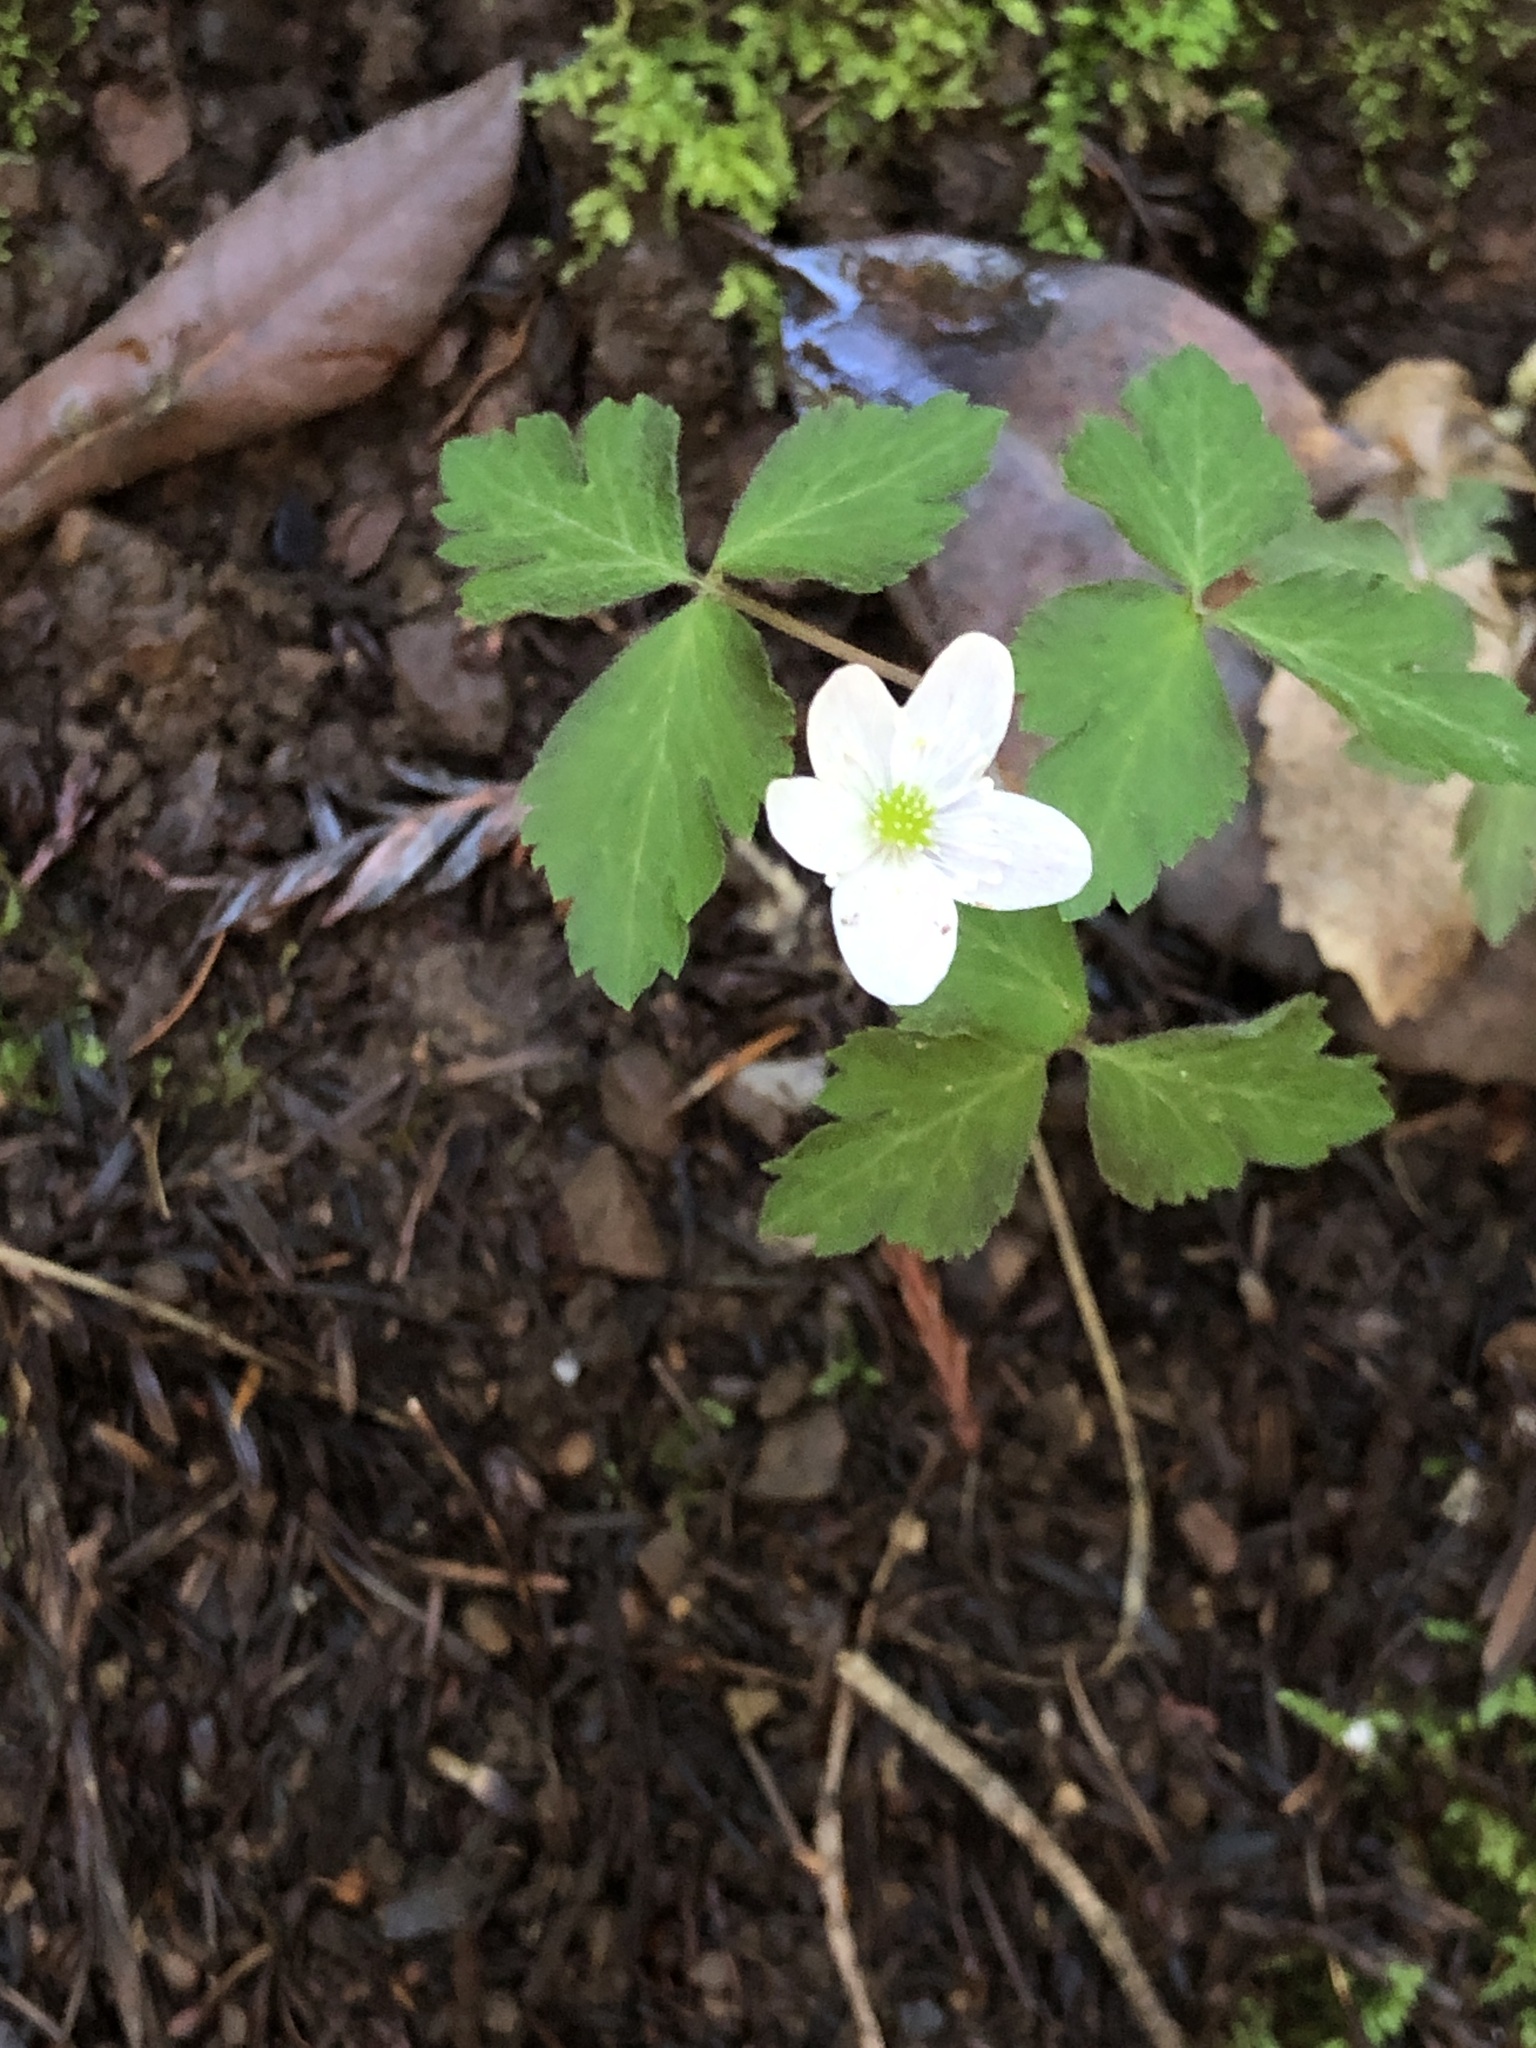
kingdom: Plantae
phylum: Tracheophyta
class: Magnoliopsida
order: Ranunculales
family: Ranunculaceae
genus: Anemone
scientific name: Anemone
